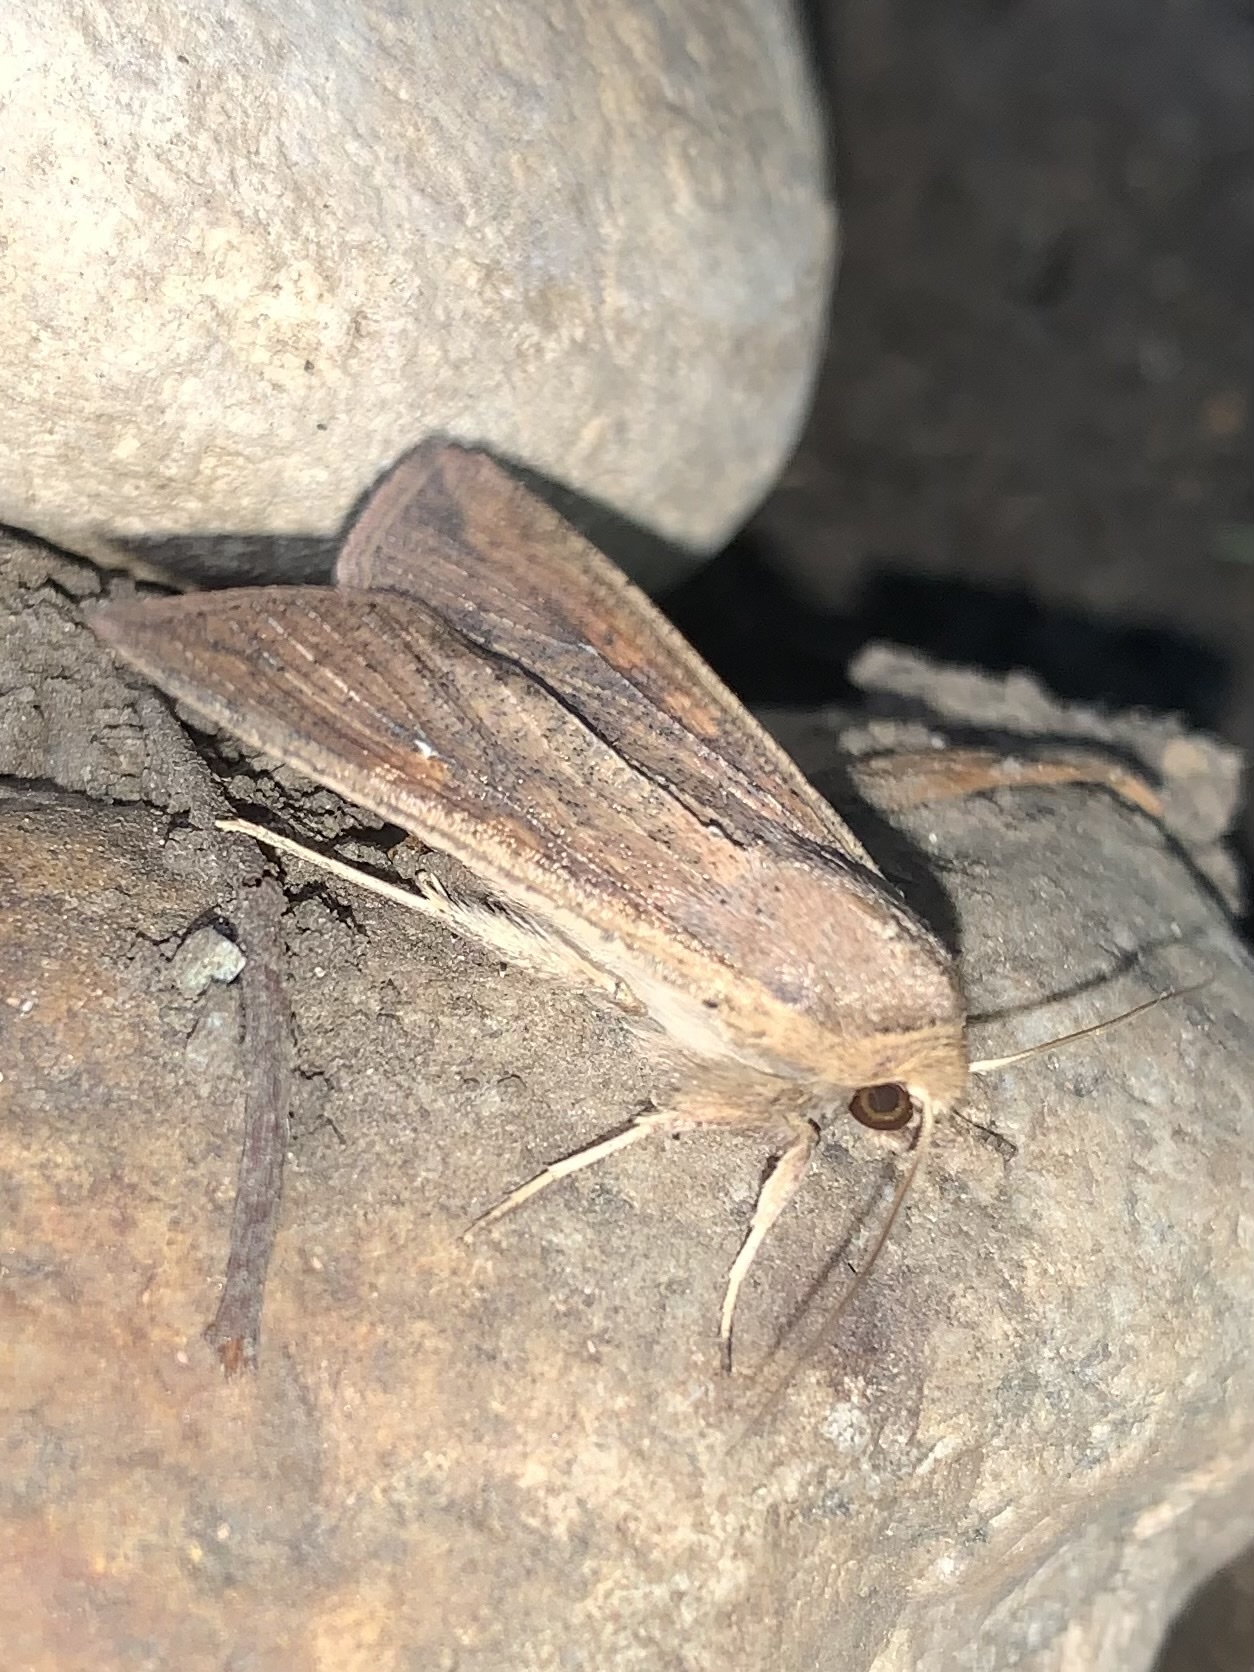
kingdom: Animalia
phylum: Arthropoda
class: Insecta
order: Lepidoptera
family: Noctuidae
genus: Mythimna
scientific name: Mythimna unipuncta
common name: White-speck
